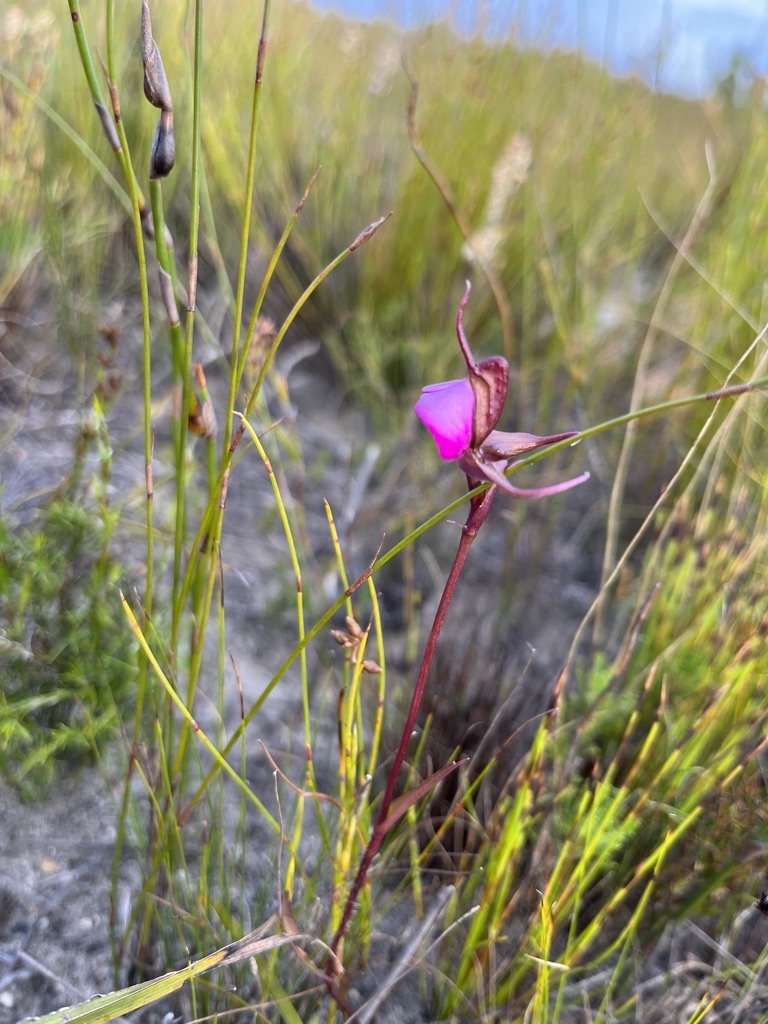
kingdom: Plantae
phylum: Tracheophyta
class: Liliopsida
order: Asparagales
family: Orchidaceae
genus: Disperis
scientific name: Disperis capensis
